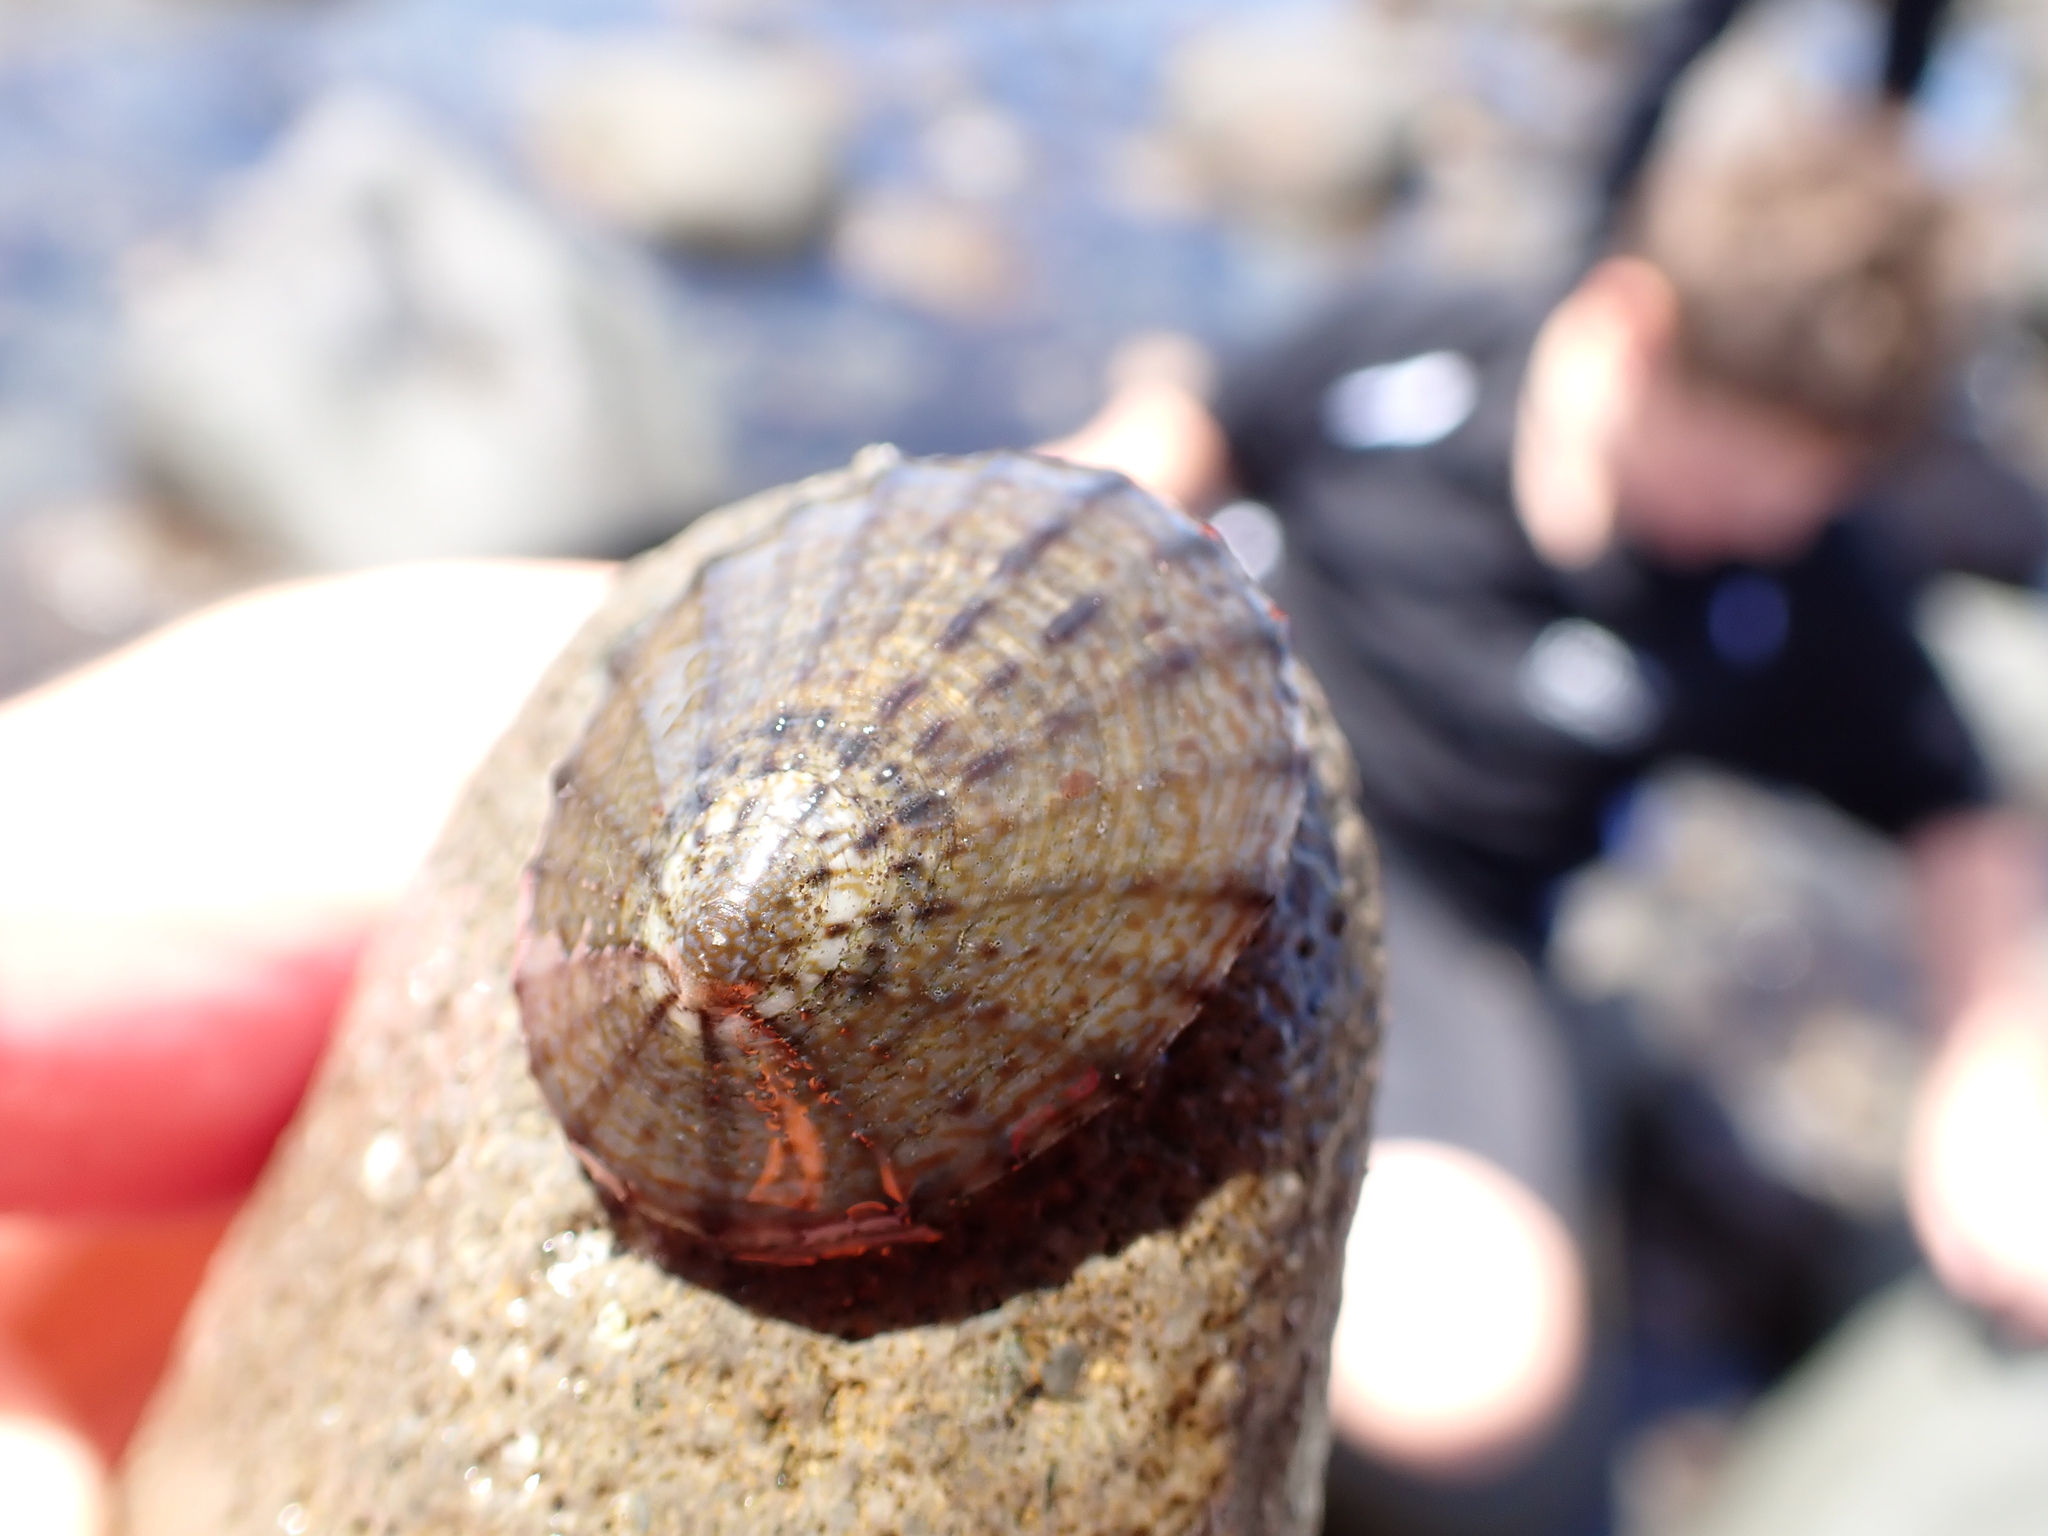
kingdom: Animalia
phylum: Mollusca
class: Gastropoda
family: Nacellidae
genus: Cellana
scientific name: Cellana radians
